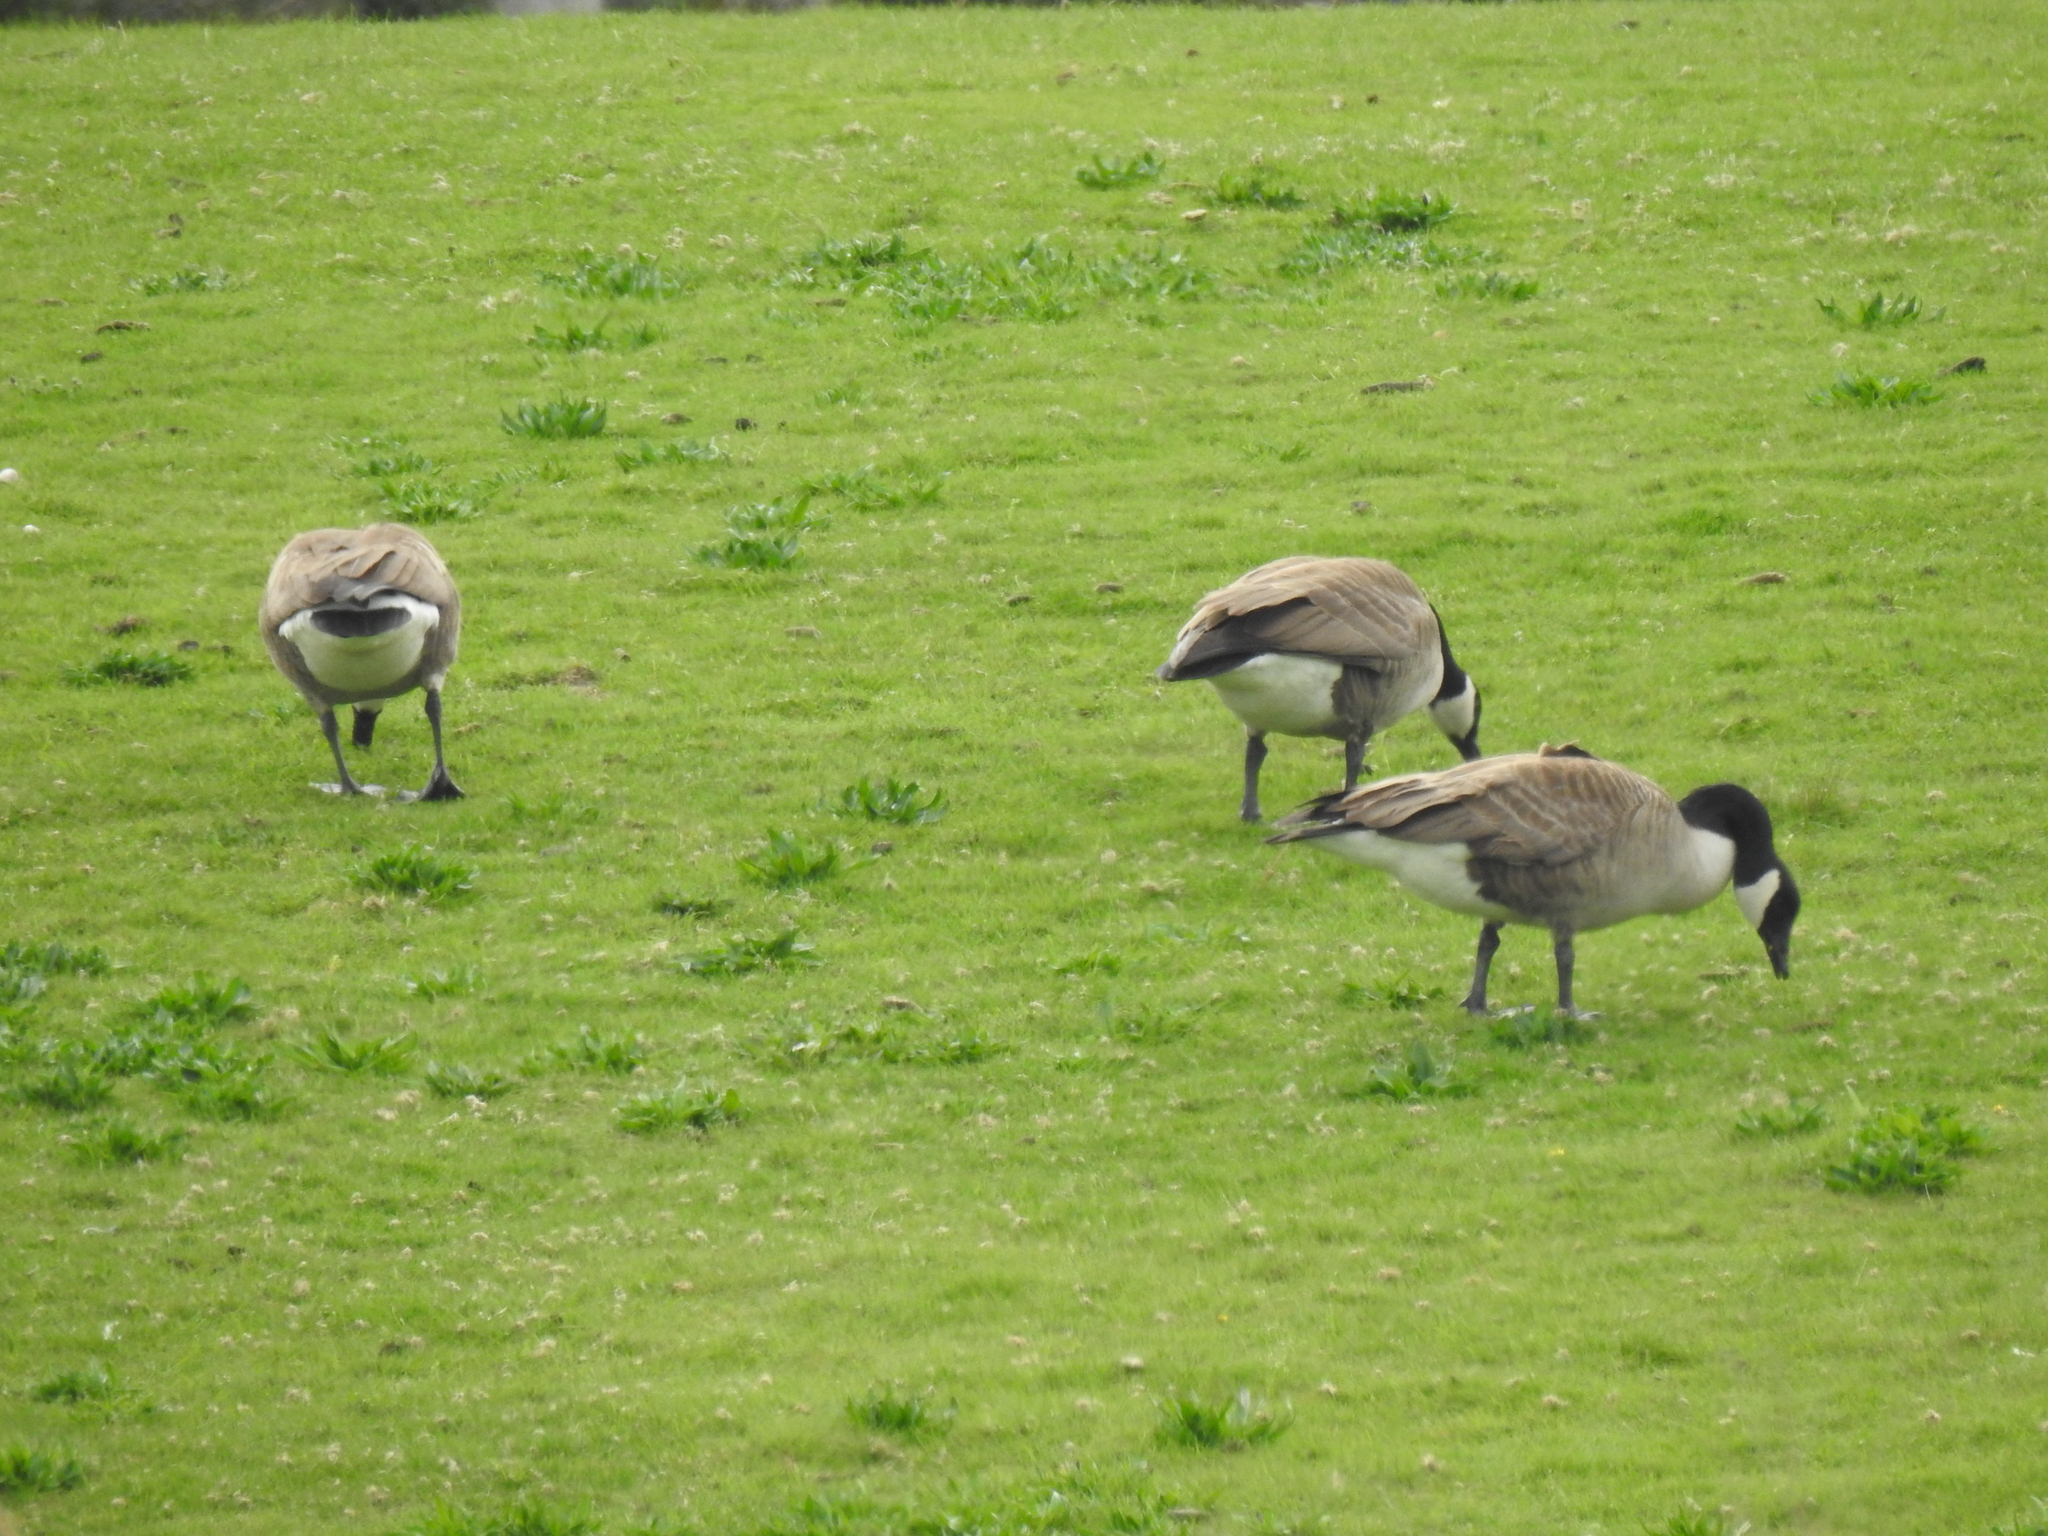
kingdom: Animalia
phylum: Chordata
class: Aves
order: Anseriformes
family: Anatidae
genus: Branta
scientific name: Branta canadensis
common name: Canada goose
